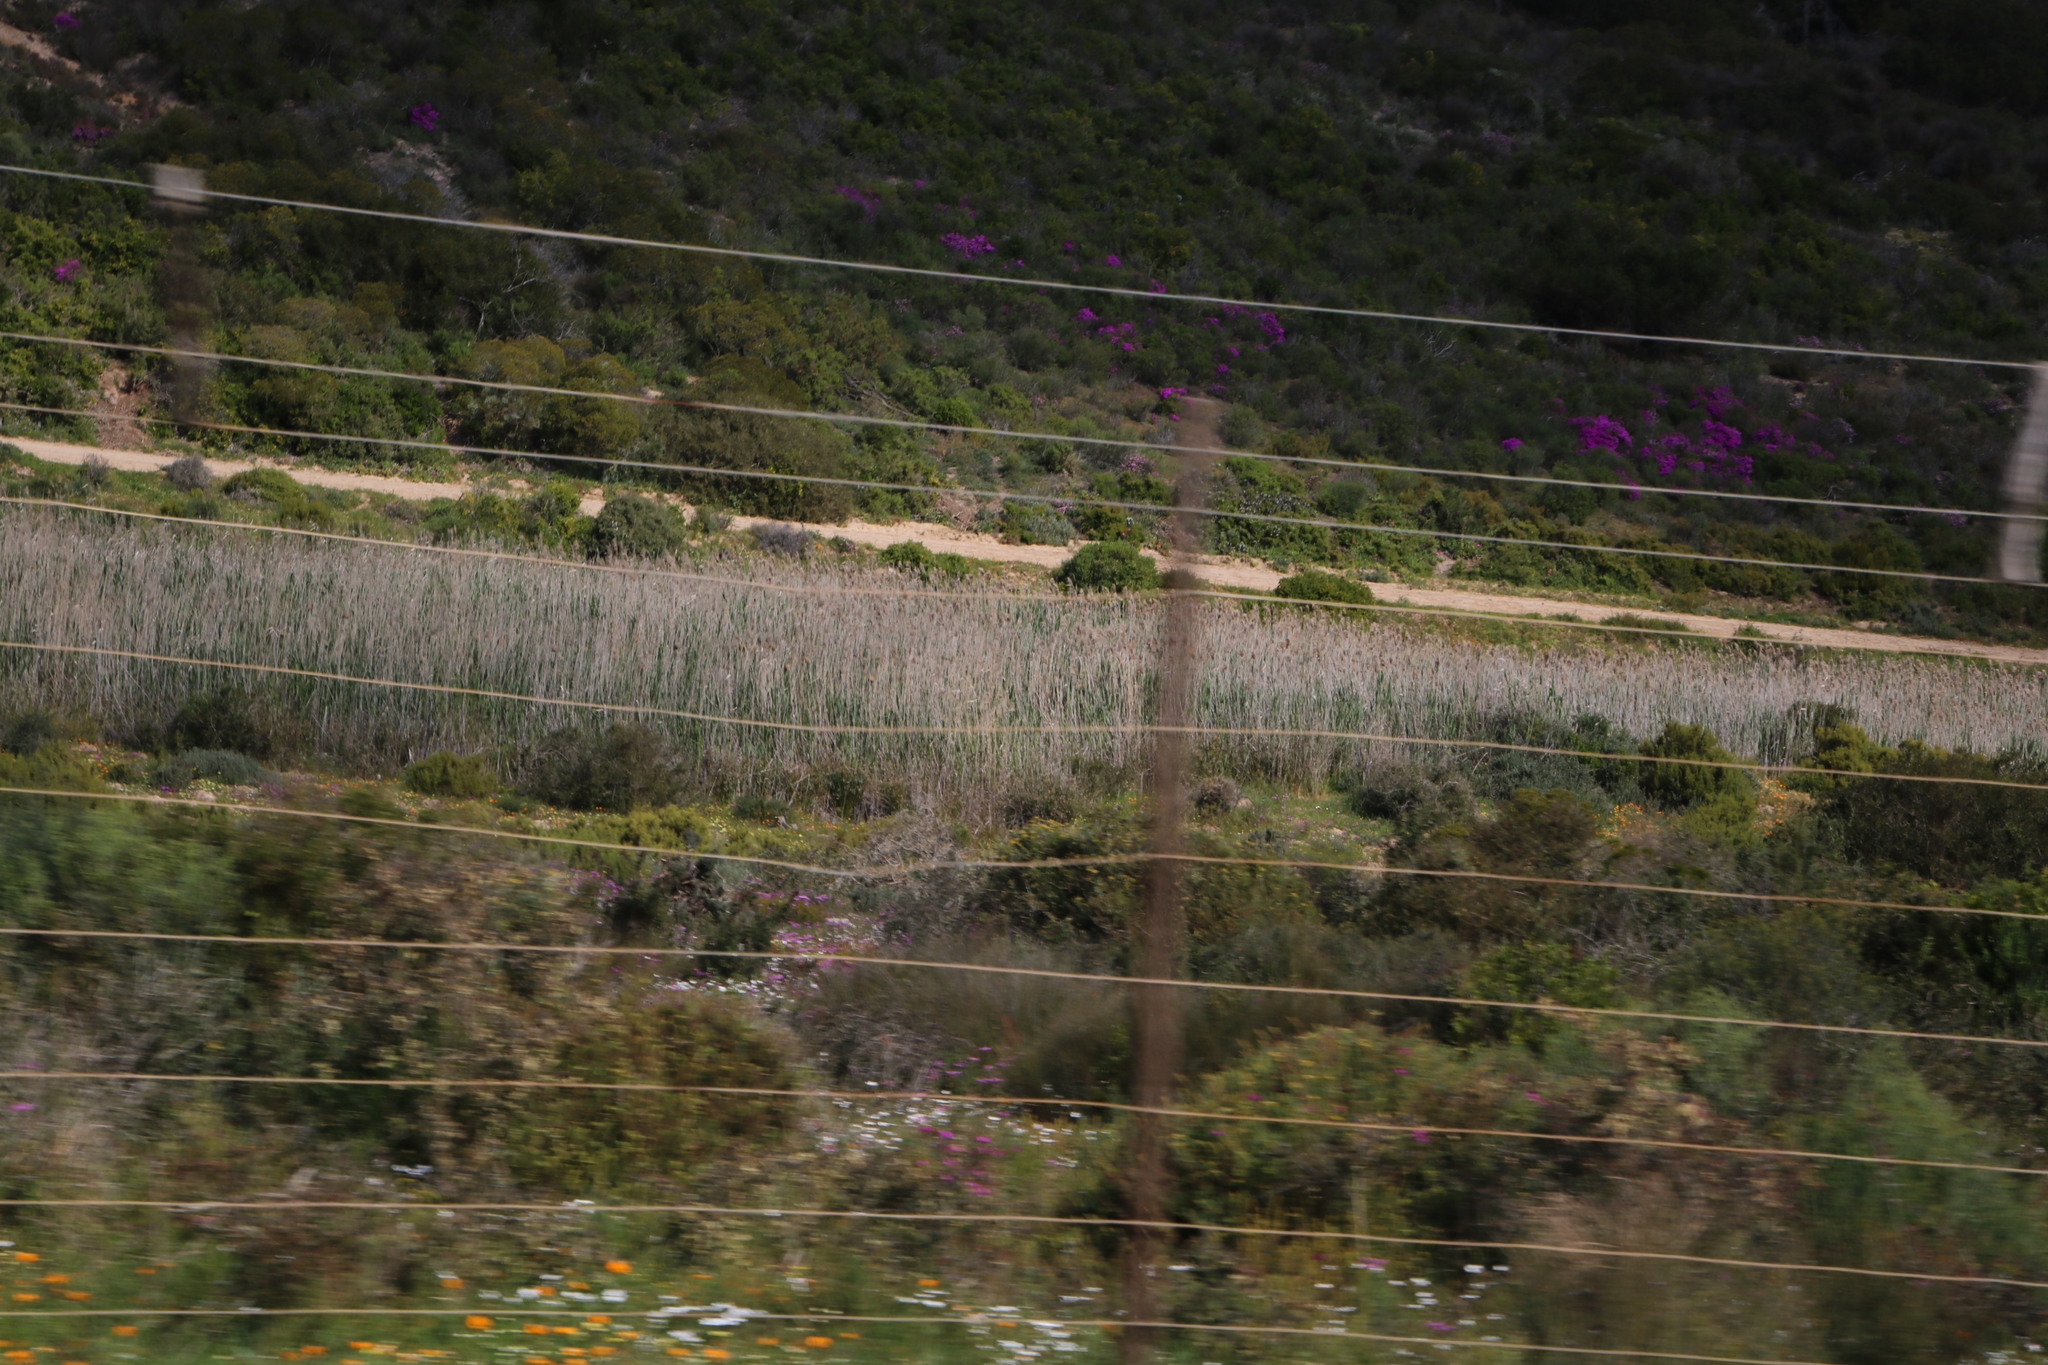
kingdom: Plantae
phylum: Tracheophyta
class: Liliopsida
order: Poales
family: Poaceae
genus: Phragmites
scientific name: Phragmites australis
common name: Common reed
